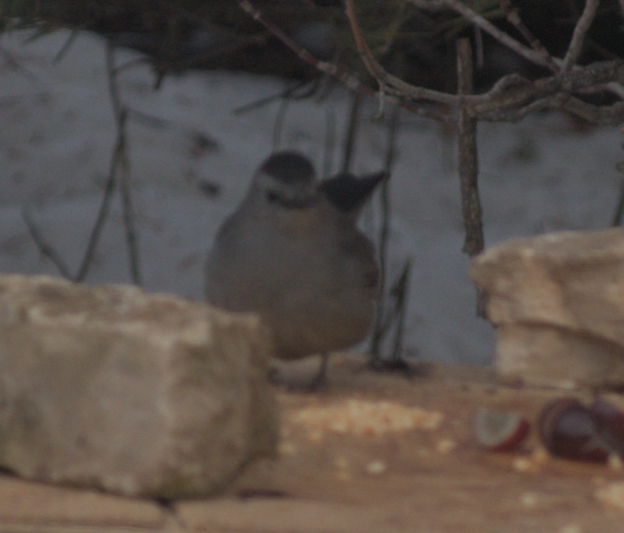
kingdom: Animalia
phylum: Chordata
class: Aves
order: Passeriformes
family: Mimidae
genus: Dumetella
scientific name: Dumetella carolinensis
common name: Gray catbird
